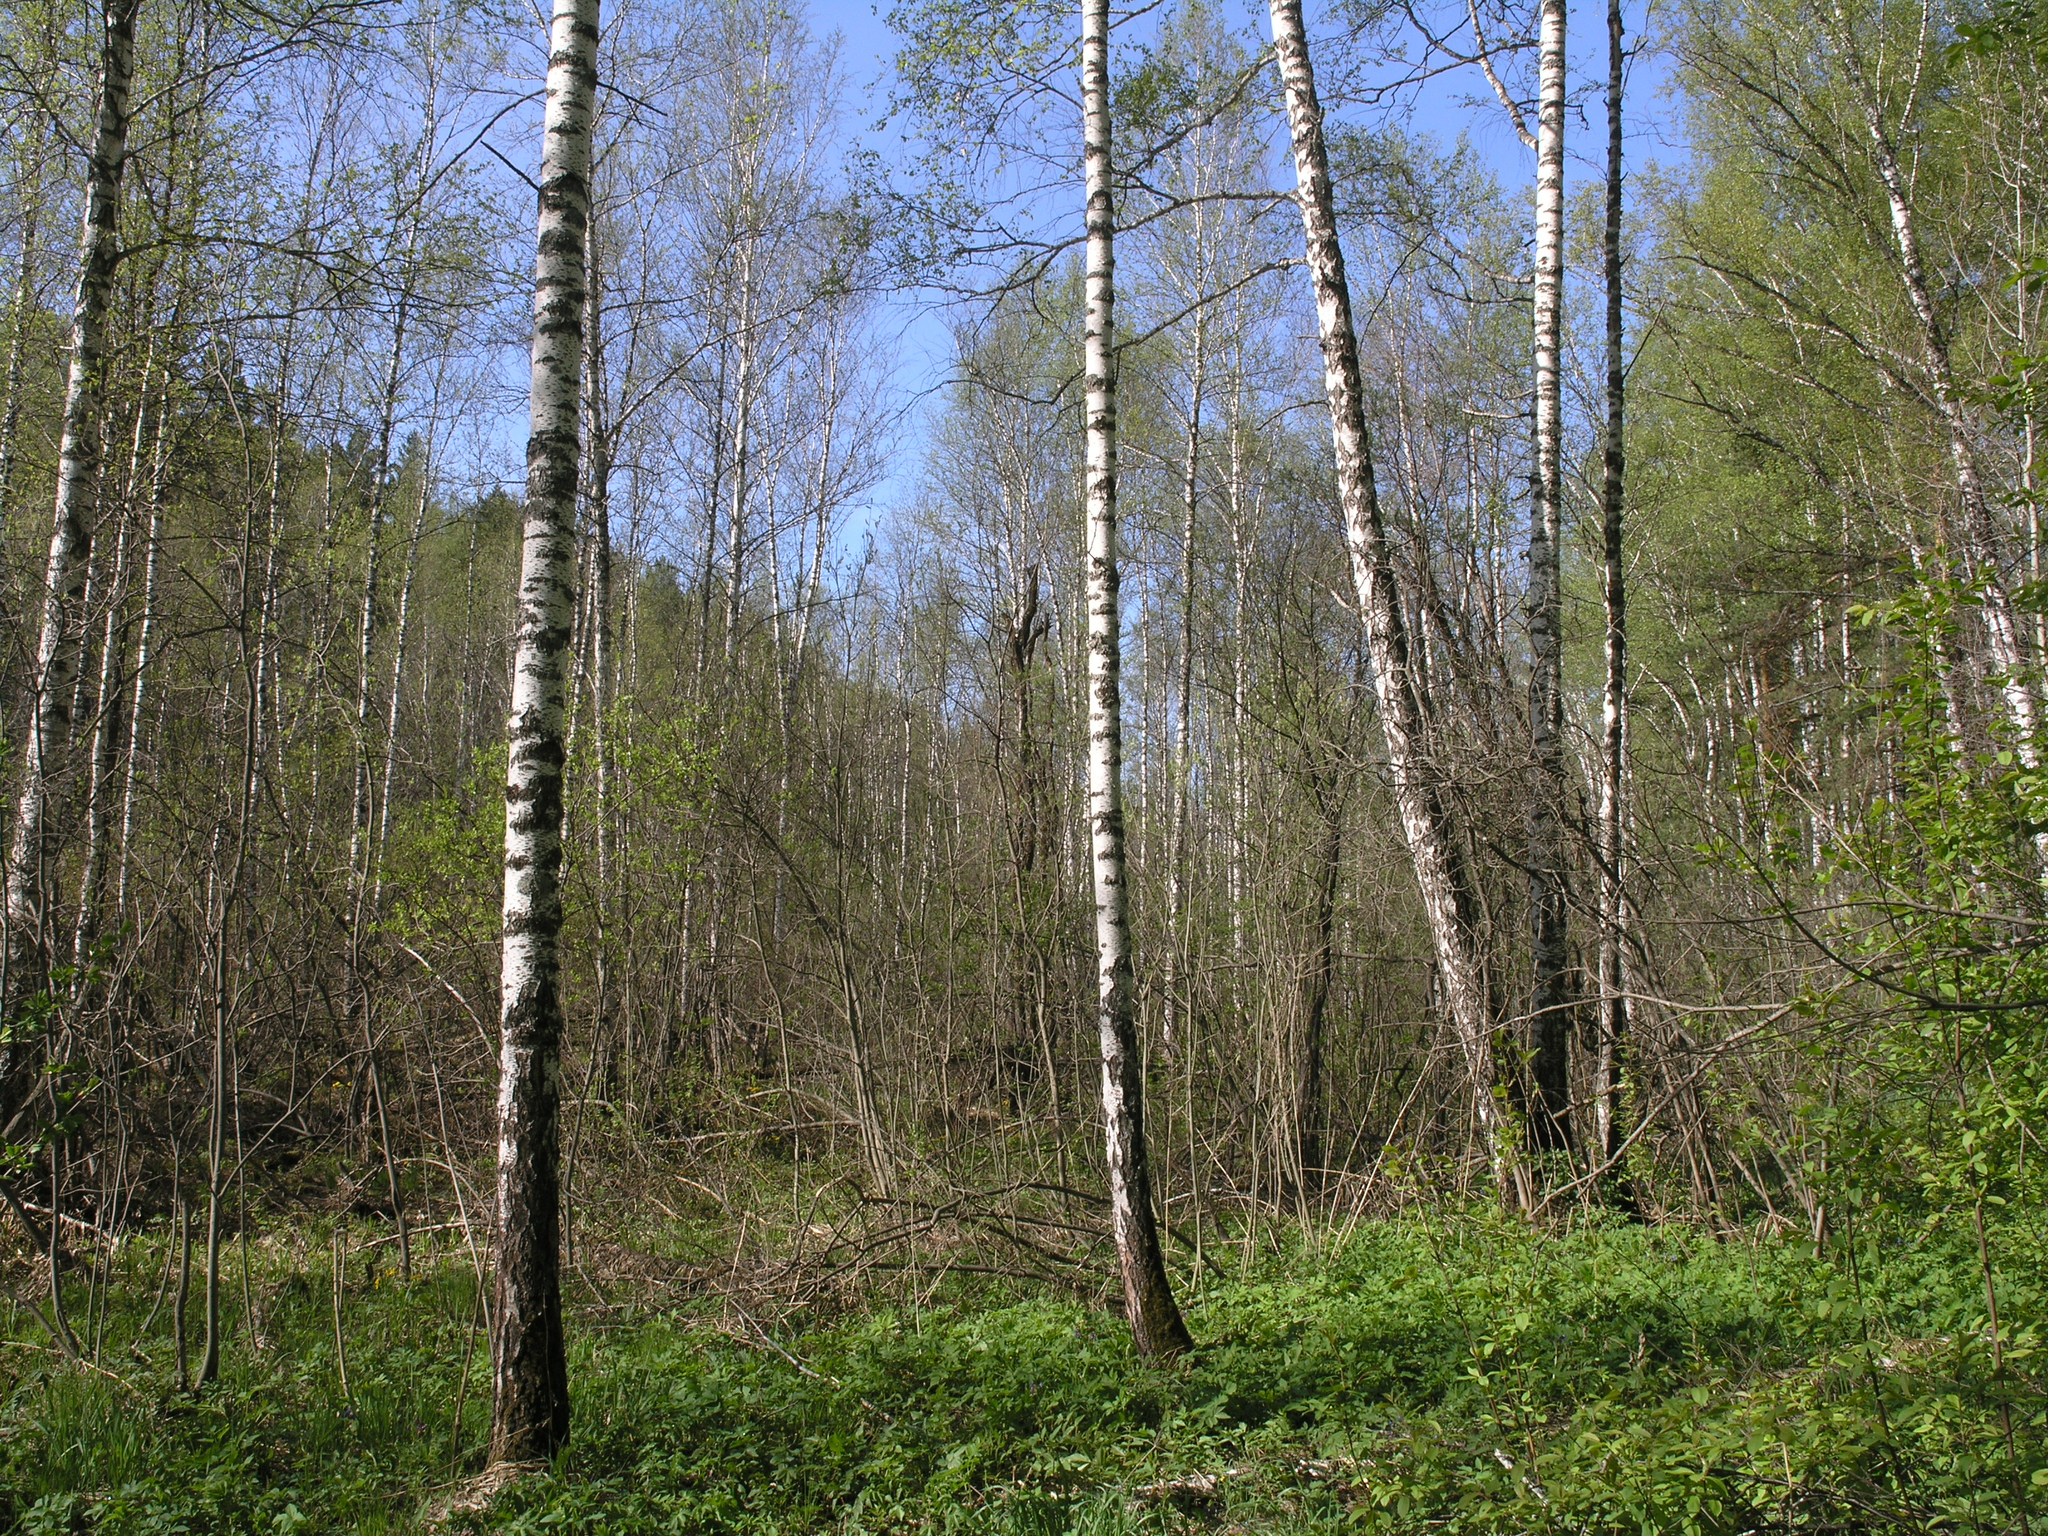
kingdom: Plantae
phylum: Tracheophyta
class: Magnoliopsida
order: Fagales
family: Betulaceae
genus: Betula
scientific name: Betula pubescens
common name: Downy birch
